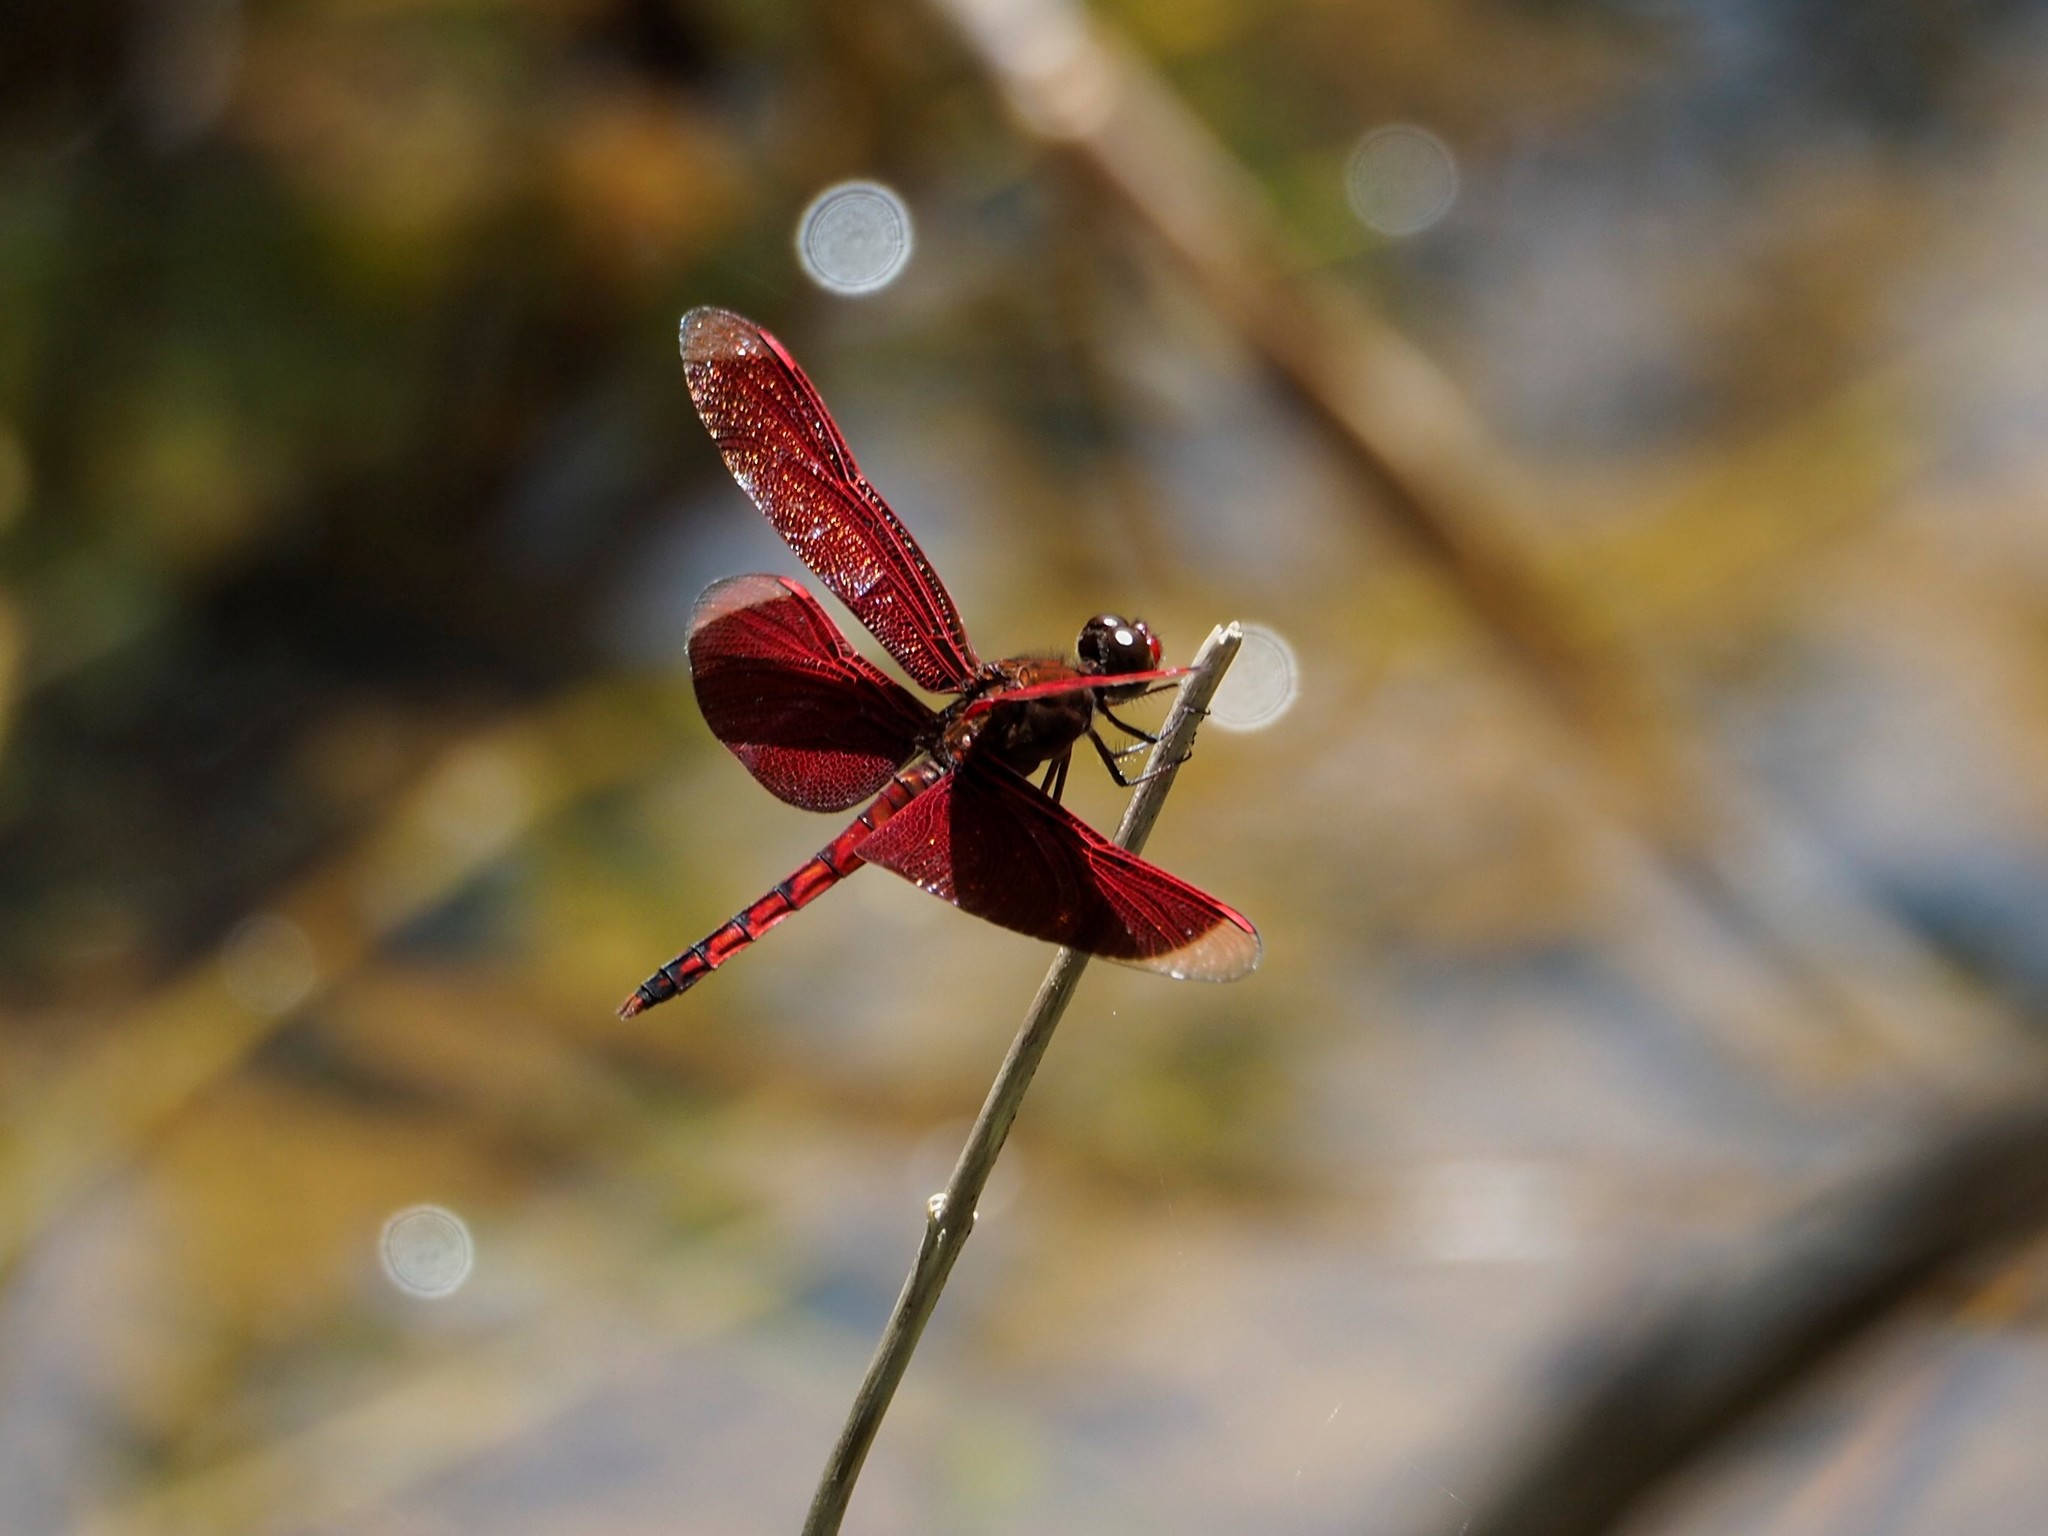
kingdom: Animalia
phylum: Arthropoda
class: Insecta
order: Odonata
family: Libellulidae
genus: Neurothemis
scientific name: Neurothemis taiwanensis
